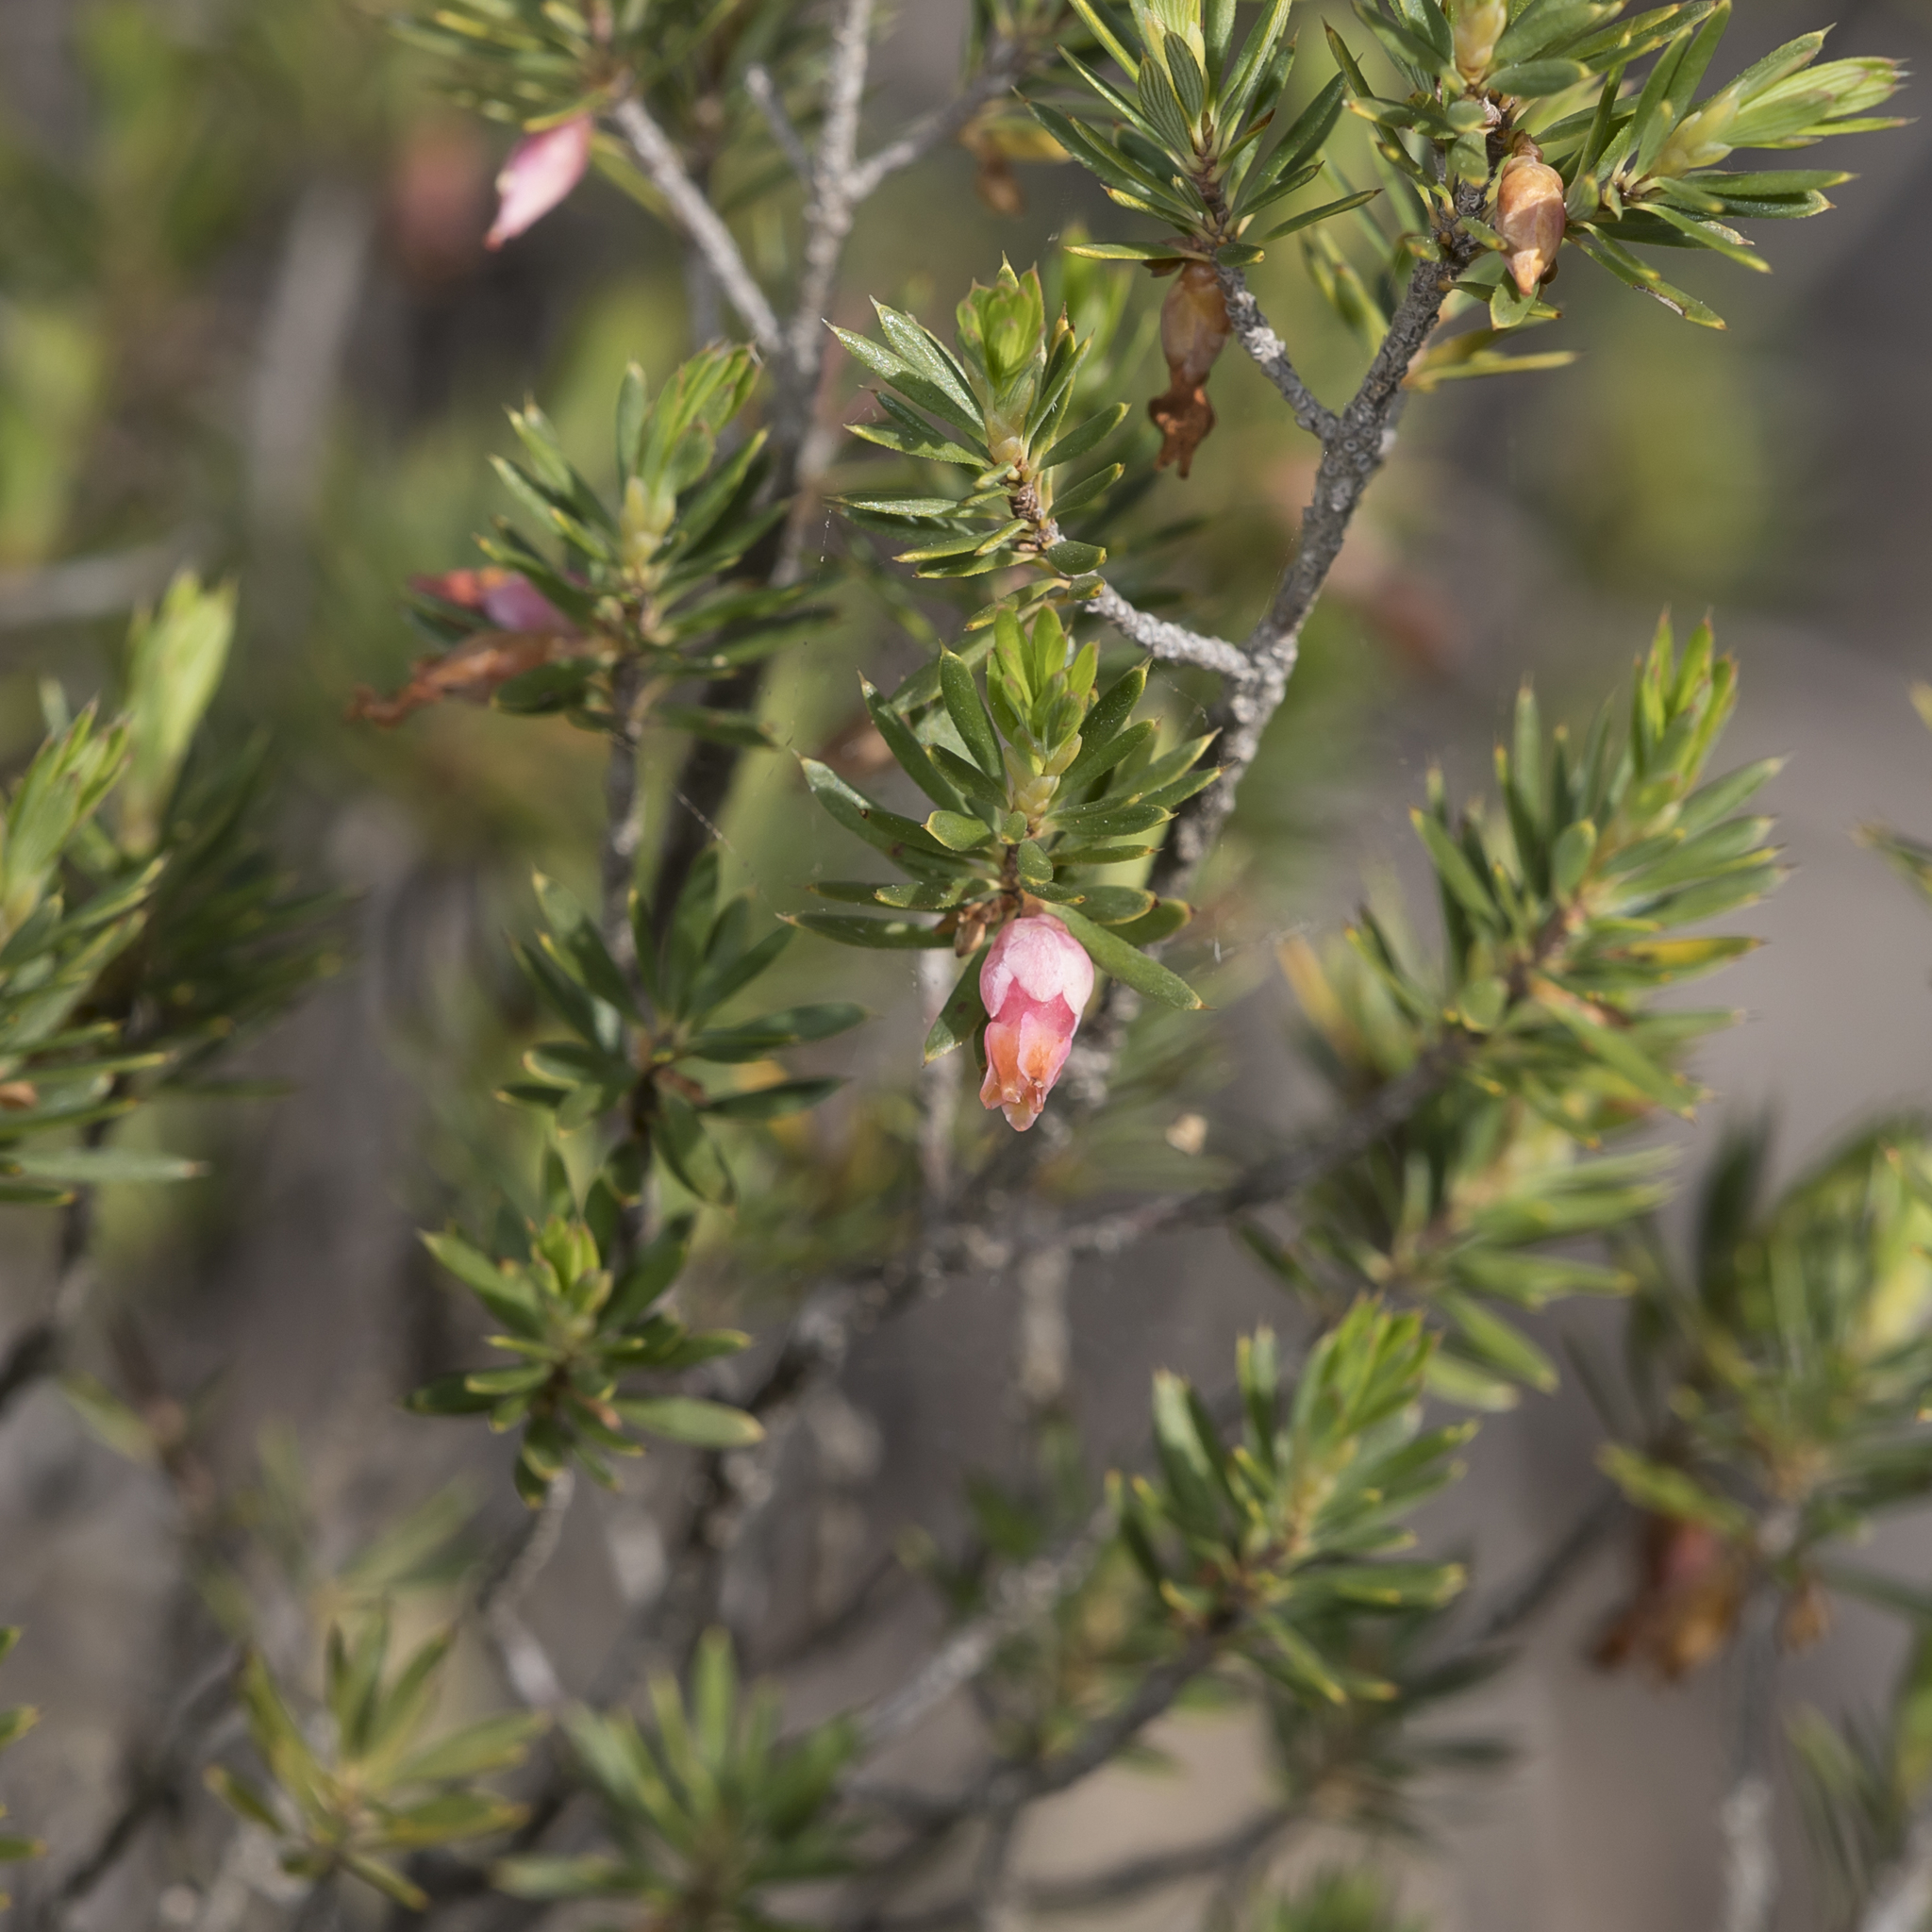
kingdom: Plantae
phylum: Tracheophyta
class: Magnoliopsida
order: Ericales
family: Ericaceae
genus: Brachyloma
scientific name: Brachyloma ericoides
